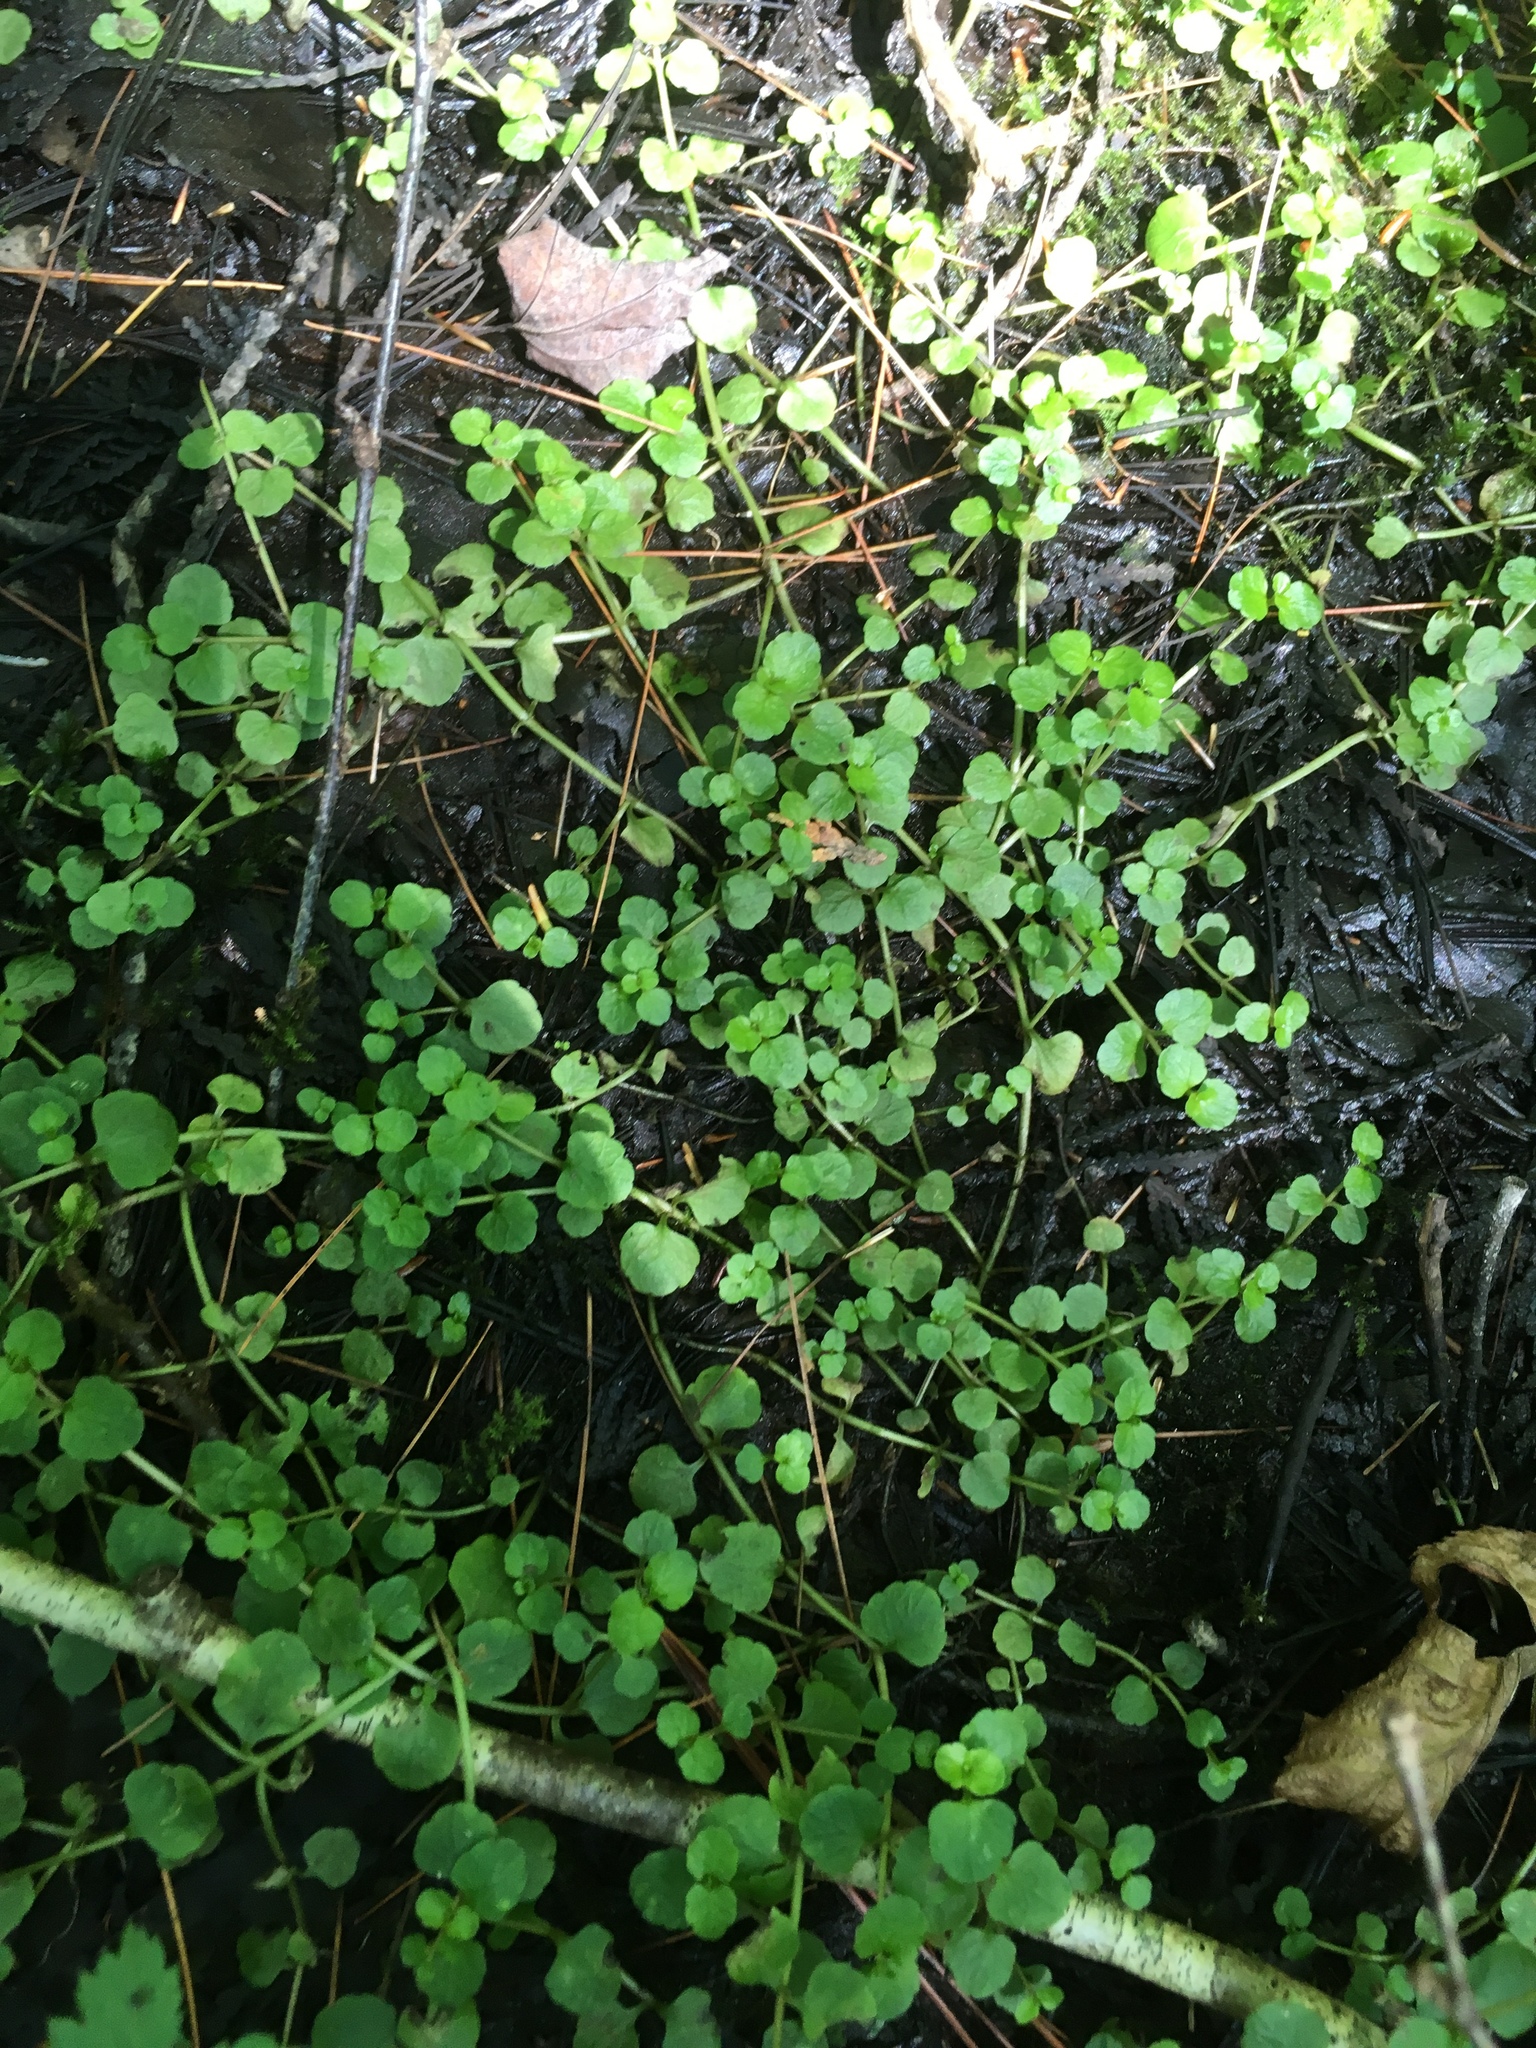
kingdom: Plantae
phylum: Tracheophyta
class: Magnoliopsida
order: Saxifragales
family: Saxifragaceae
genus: Chrysosplenium
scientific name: Chrysosplenium americanum
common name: American golden-saxifrage
